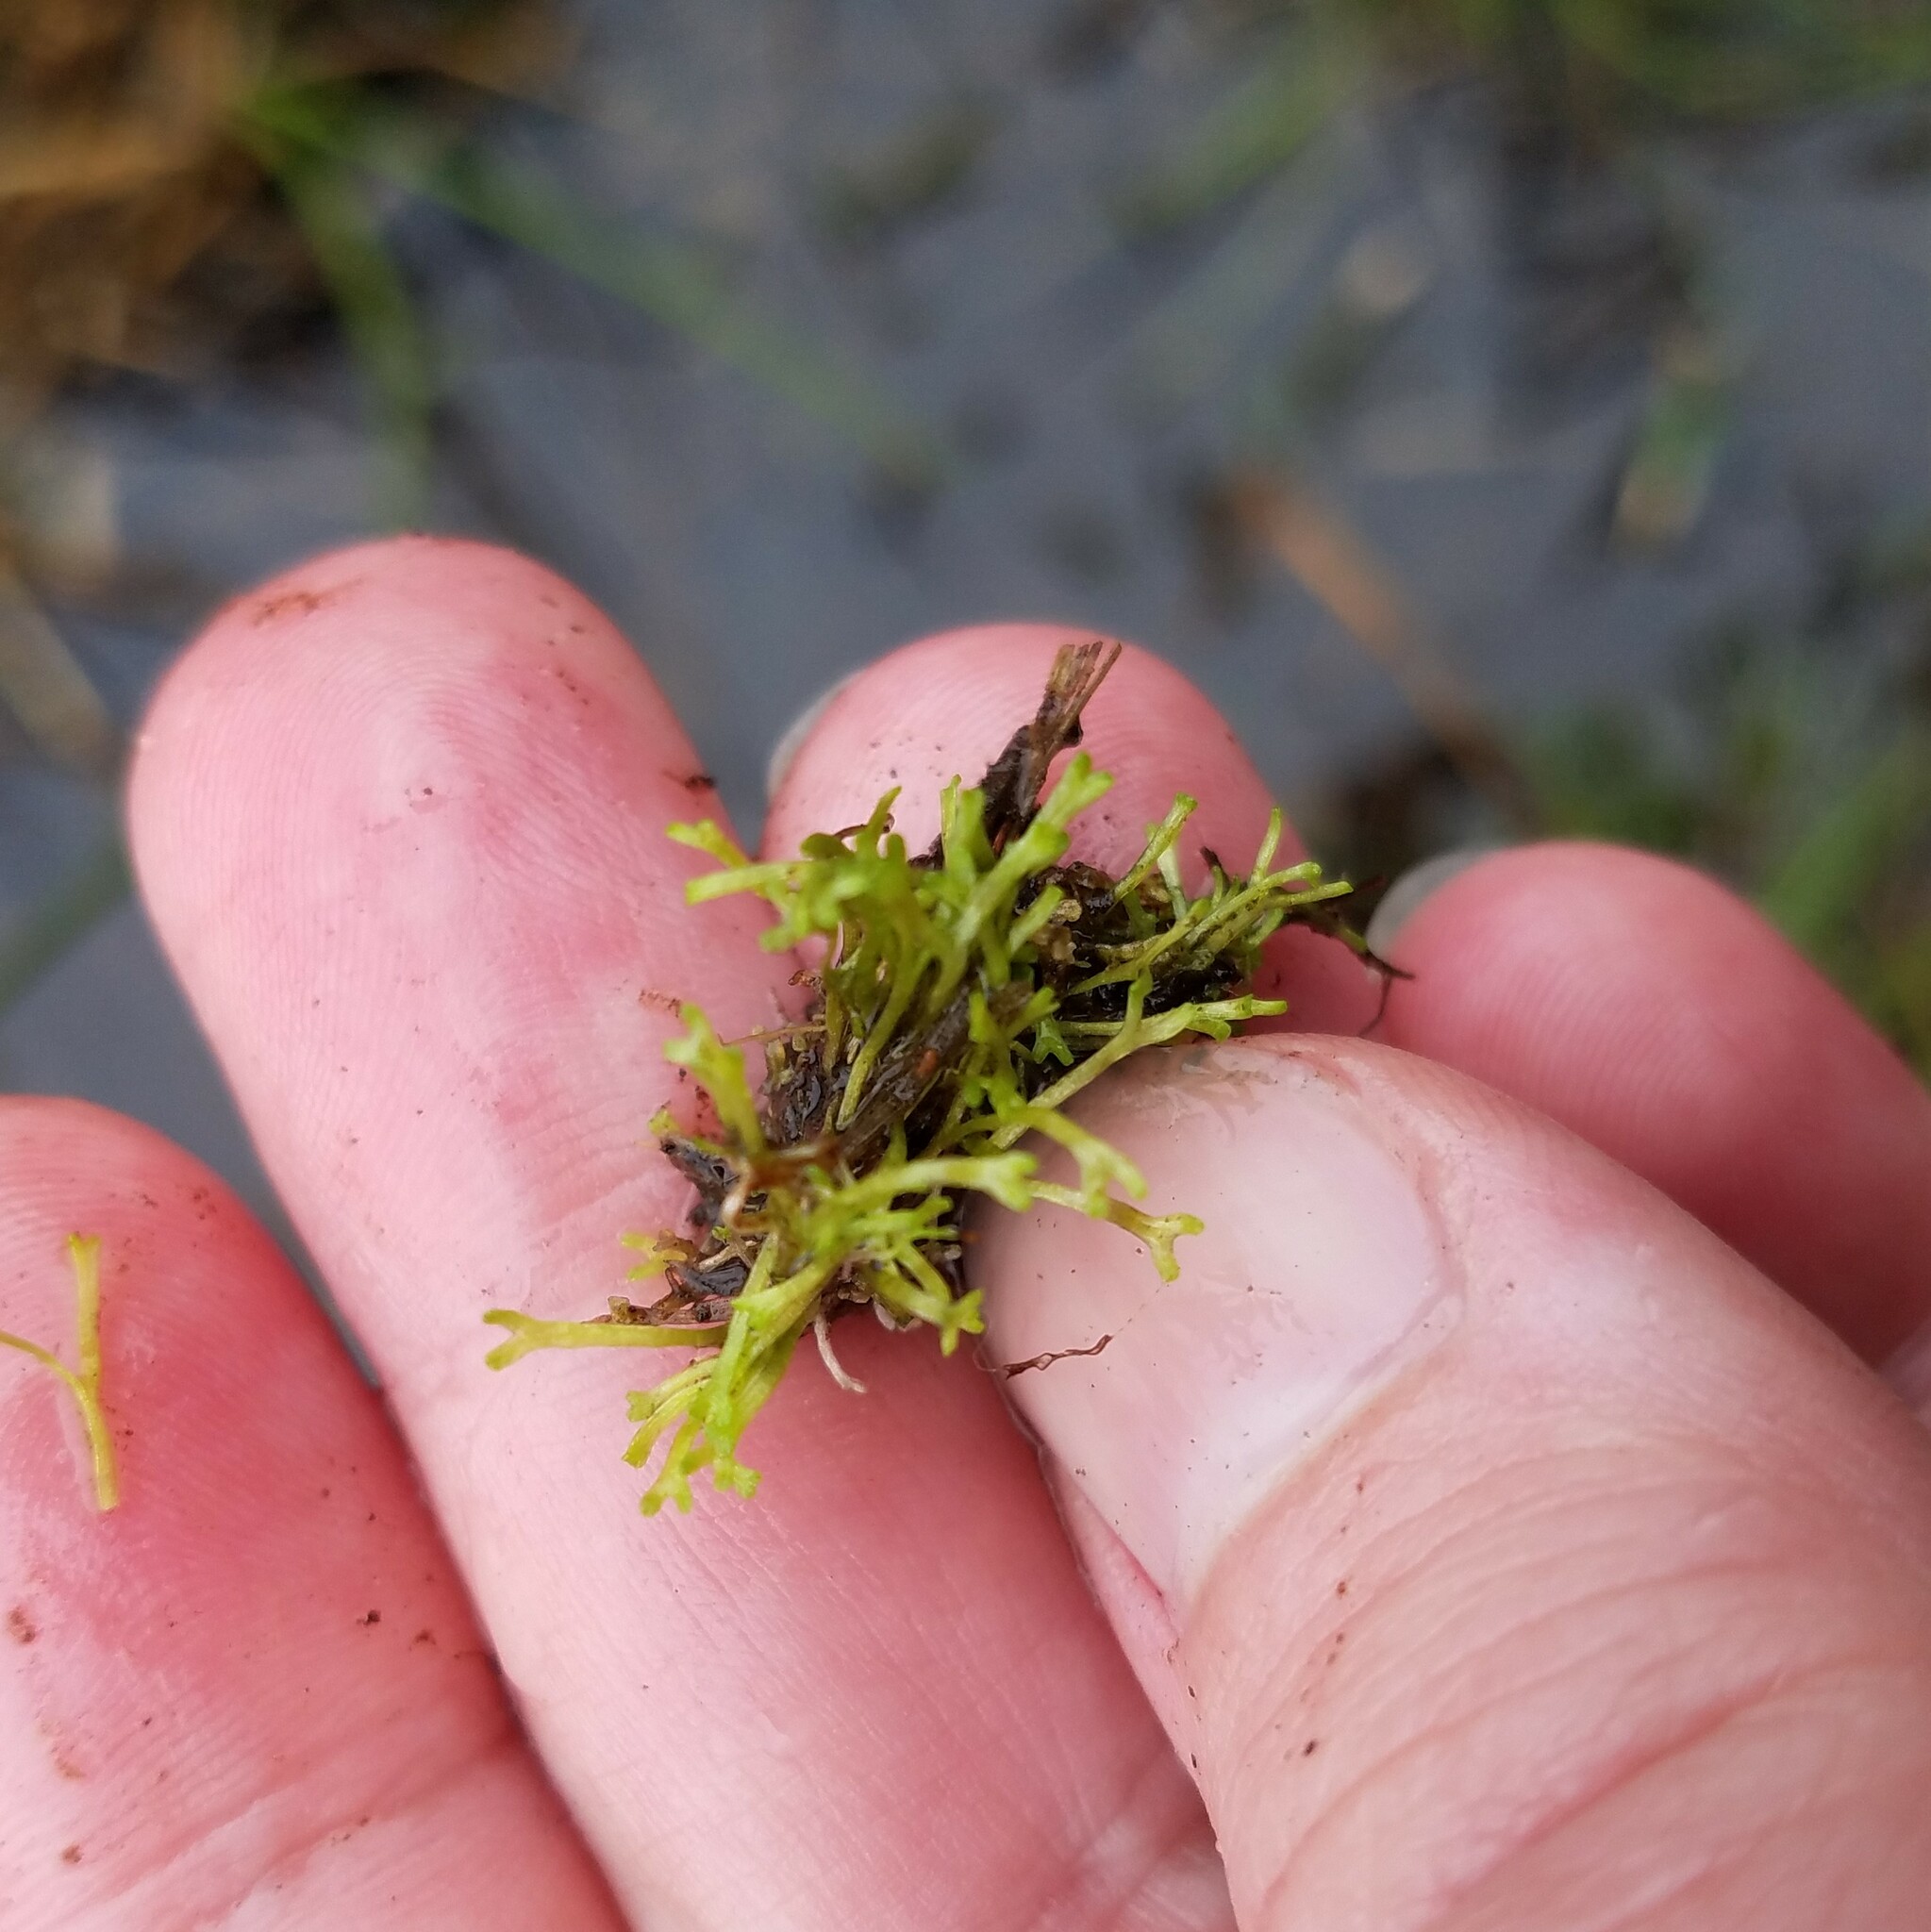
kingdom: Plantae
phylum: Marchantiophyta
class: Marchantiopsida
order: Marchantiales
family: Ricciaceae
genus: Riccia
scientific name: Riccia fluitans
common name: Floating crystalwort
